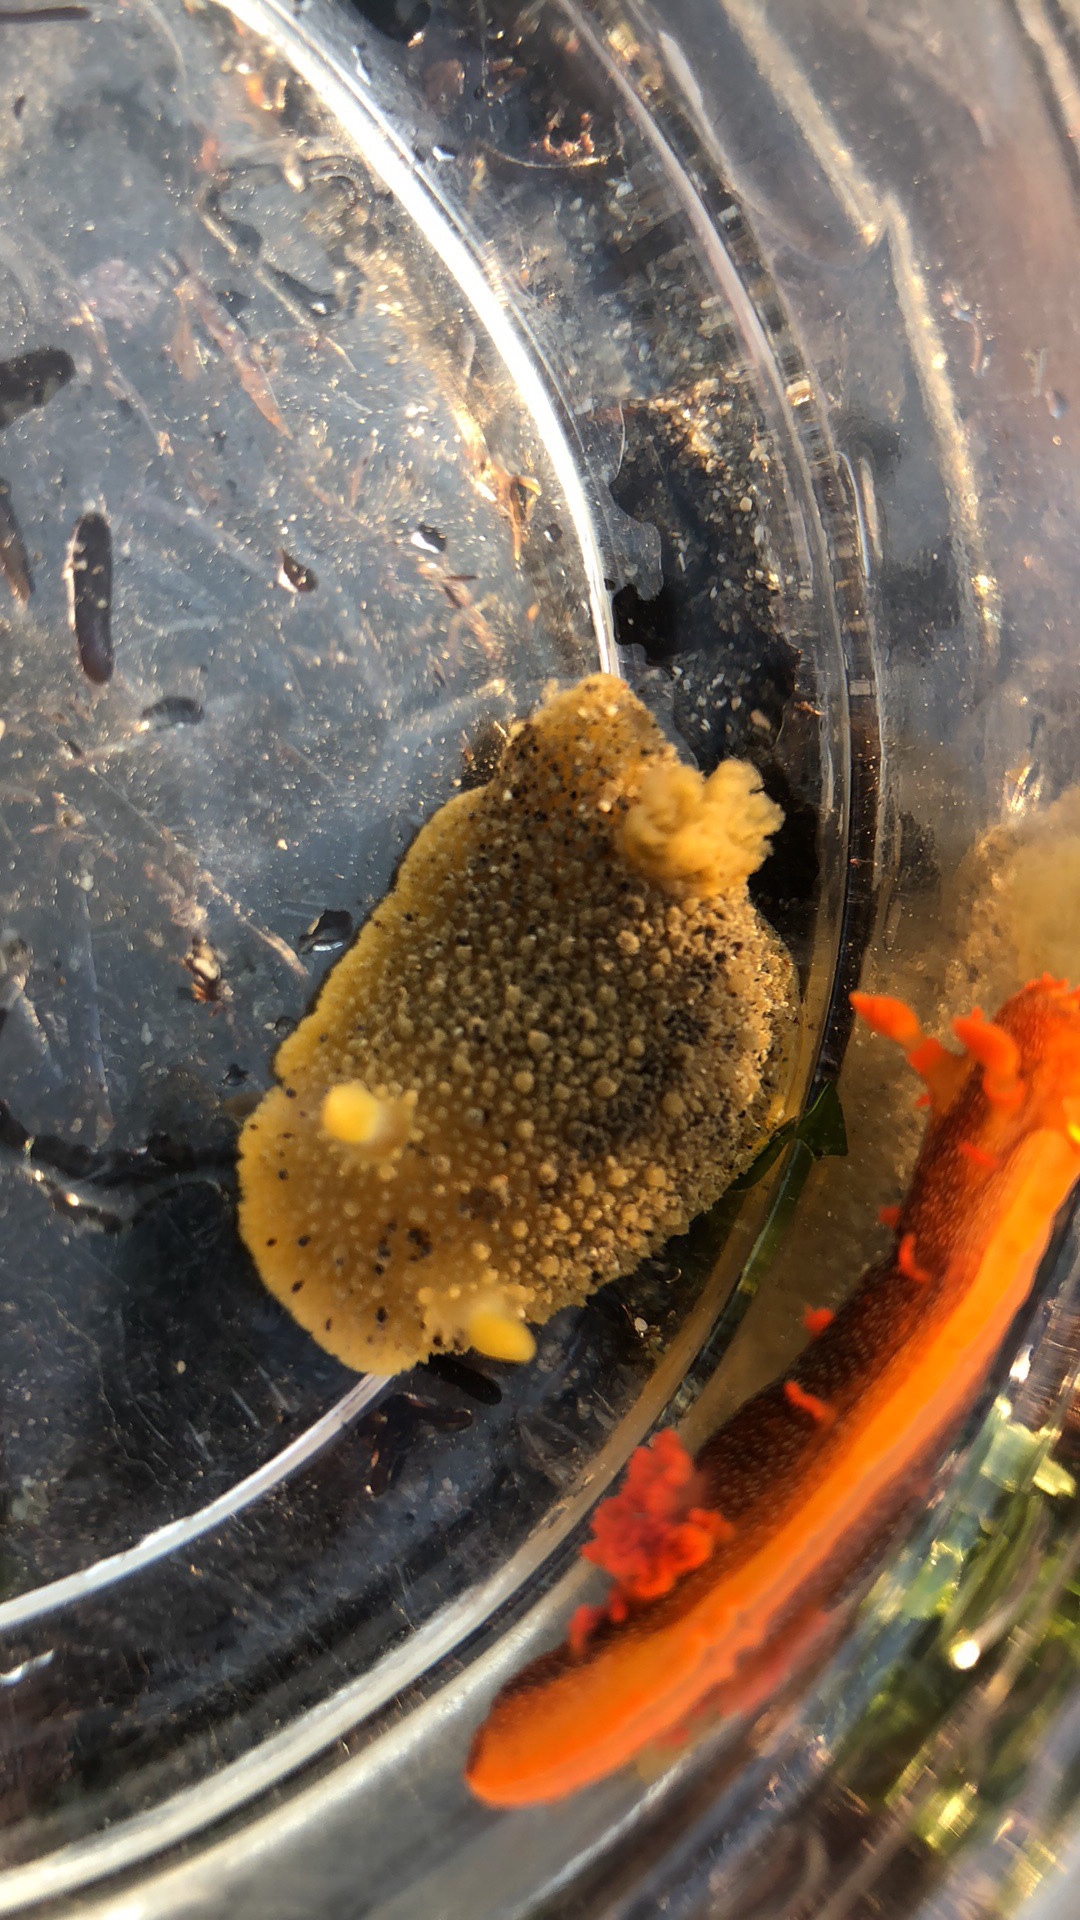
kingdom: Animalia
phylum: Mollusca
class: Gastropoda
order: Nudibranchia
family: Dorididae
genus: Doris
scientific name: Doris montereyensis
